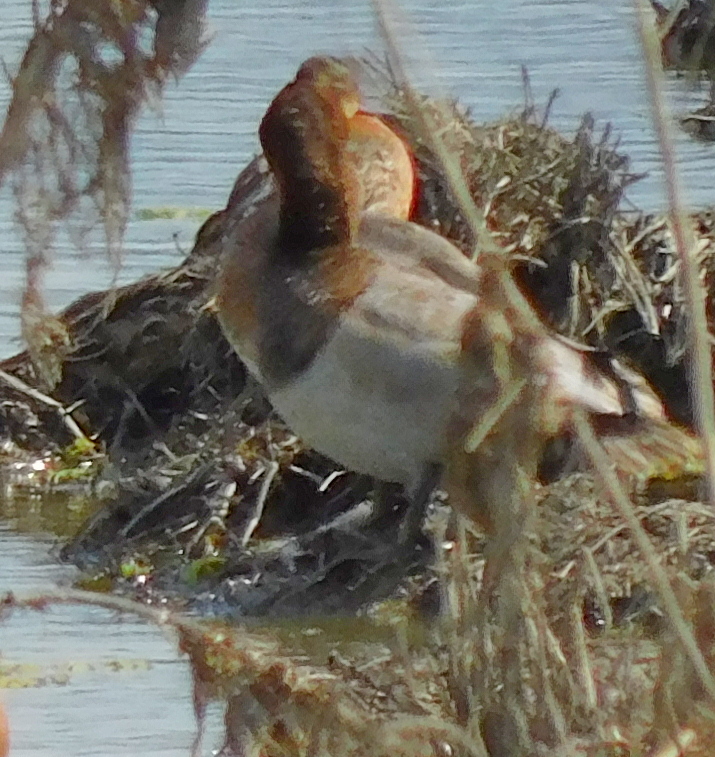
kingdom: Animalia
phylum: Chordata
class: Aves
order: Anseriformes
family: Anatidae
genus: Aythya
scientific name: Aythya ferina
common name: Common pochard
